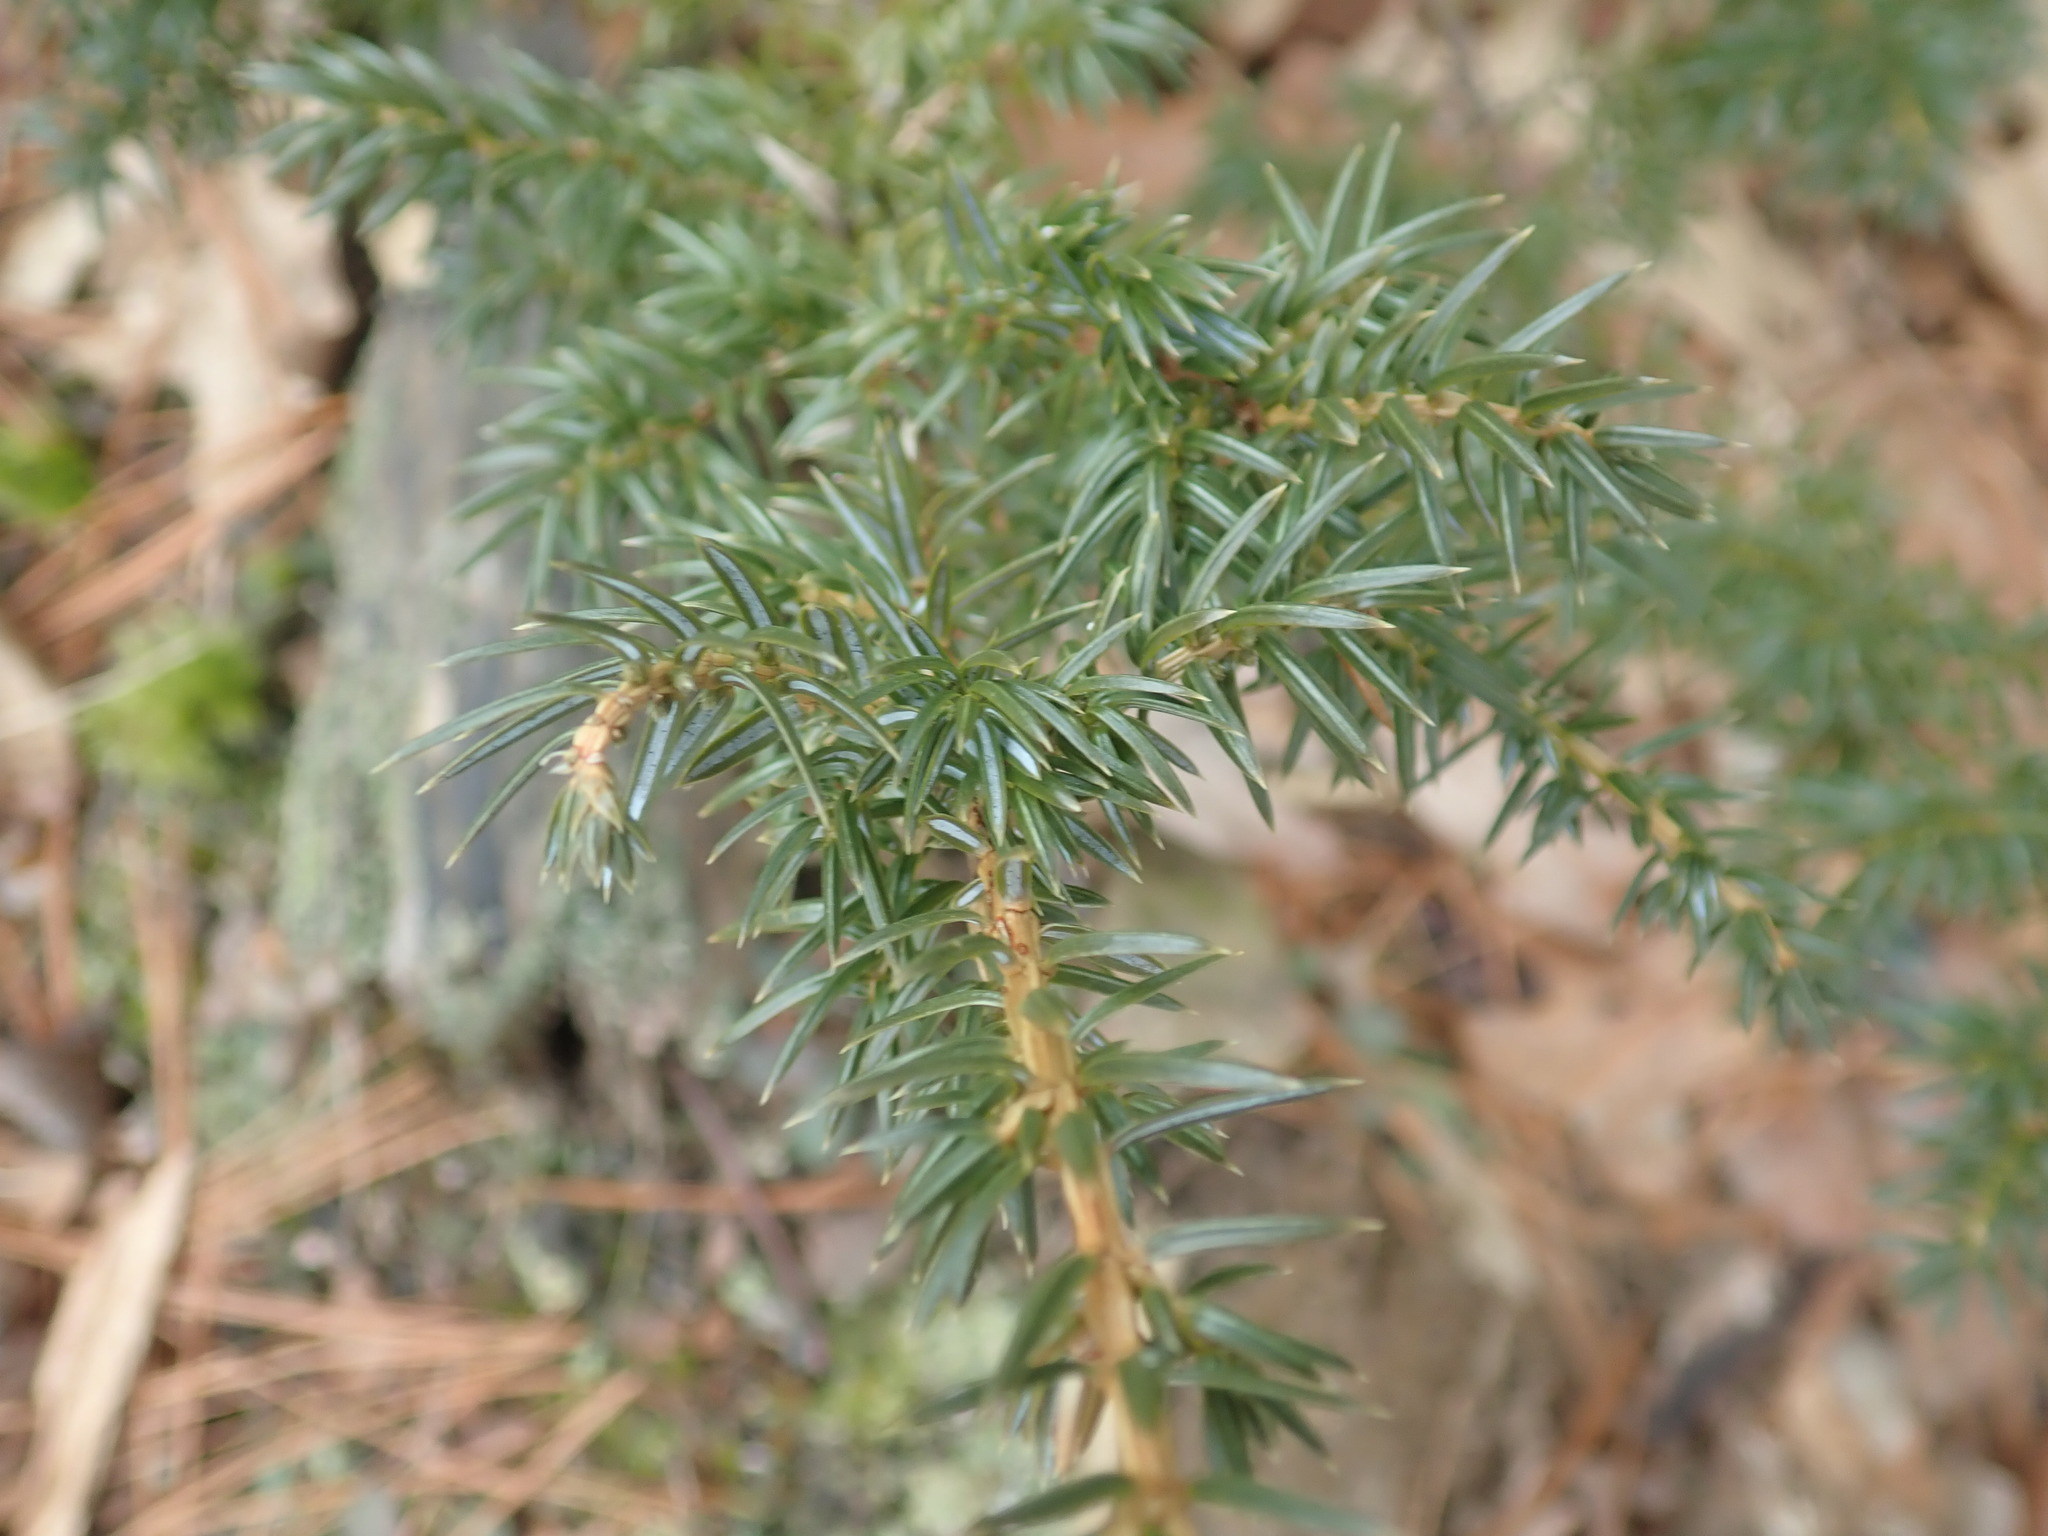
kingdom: Plantae
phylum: Tracheophyta
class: Pinopsida
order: Pinales
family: Cupressaceae
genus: Juniperus
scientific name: Juniperus communis
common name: Common juniper
